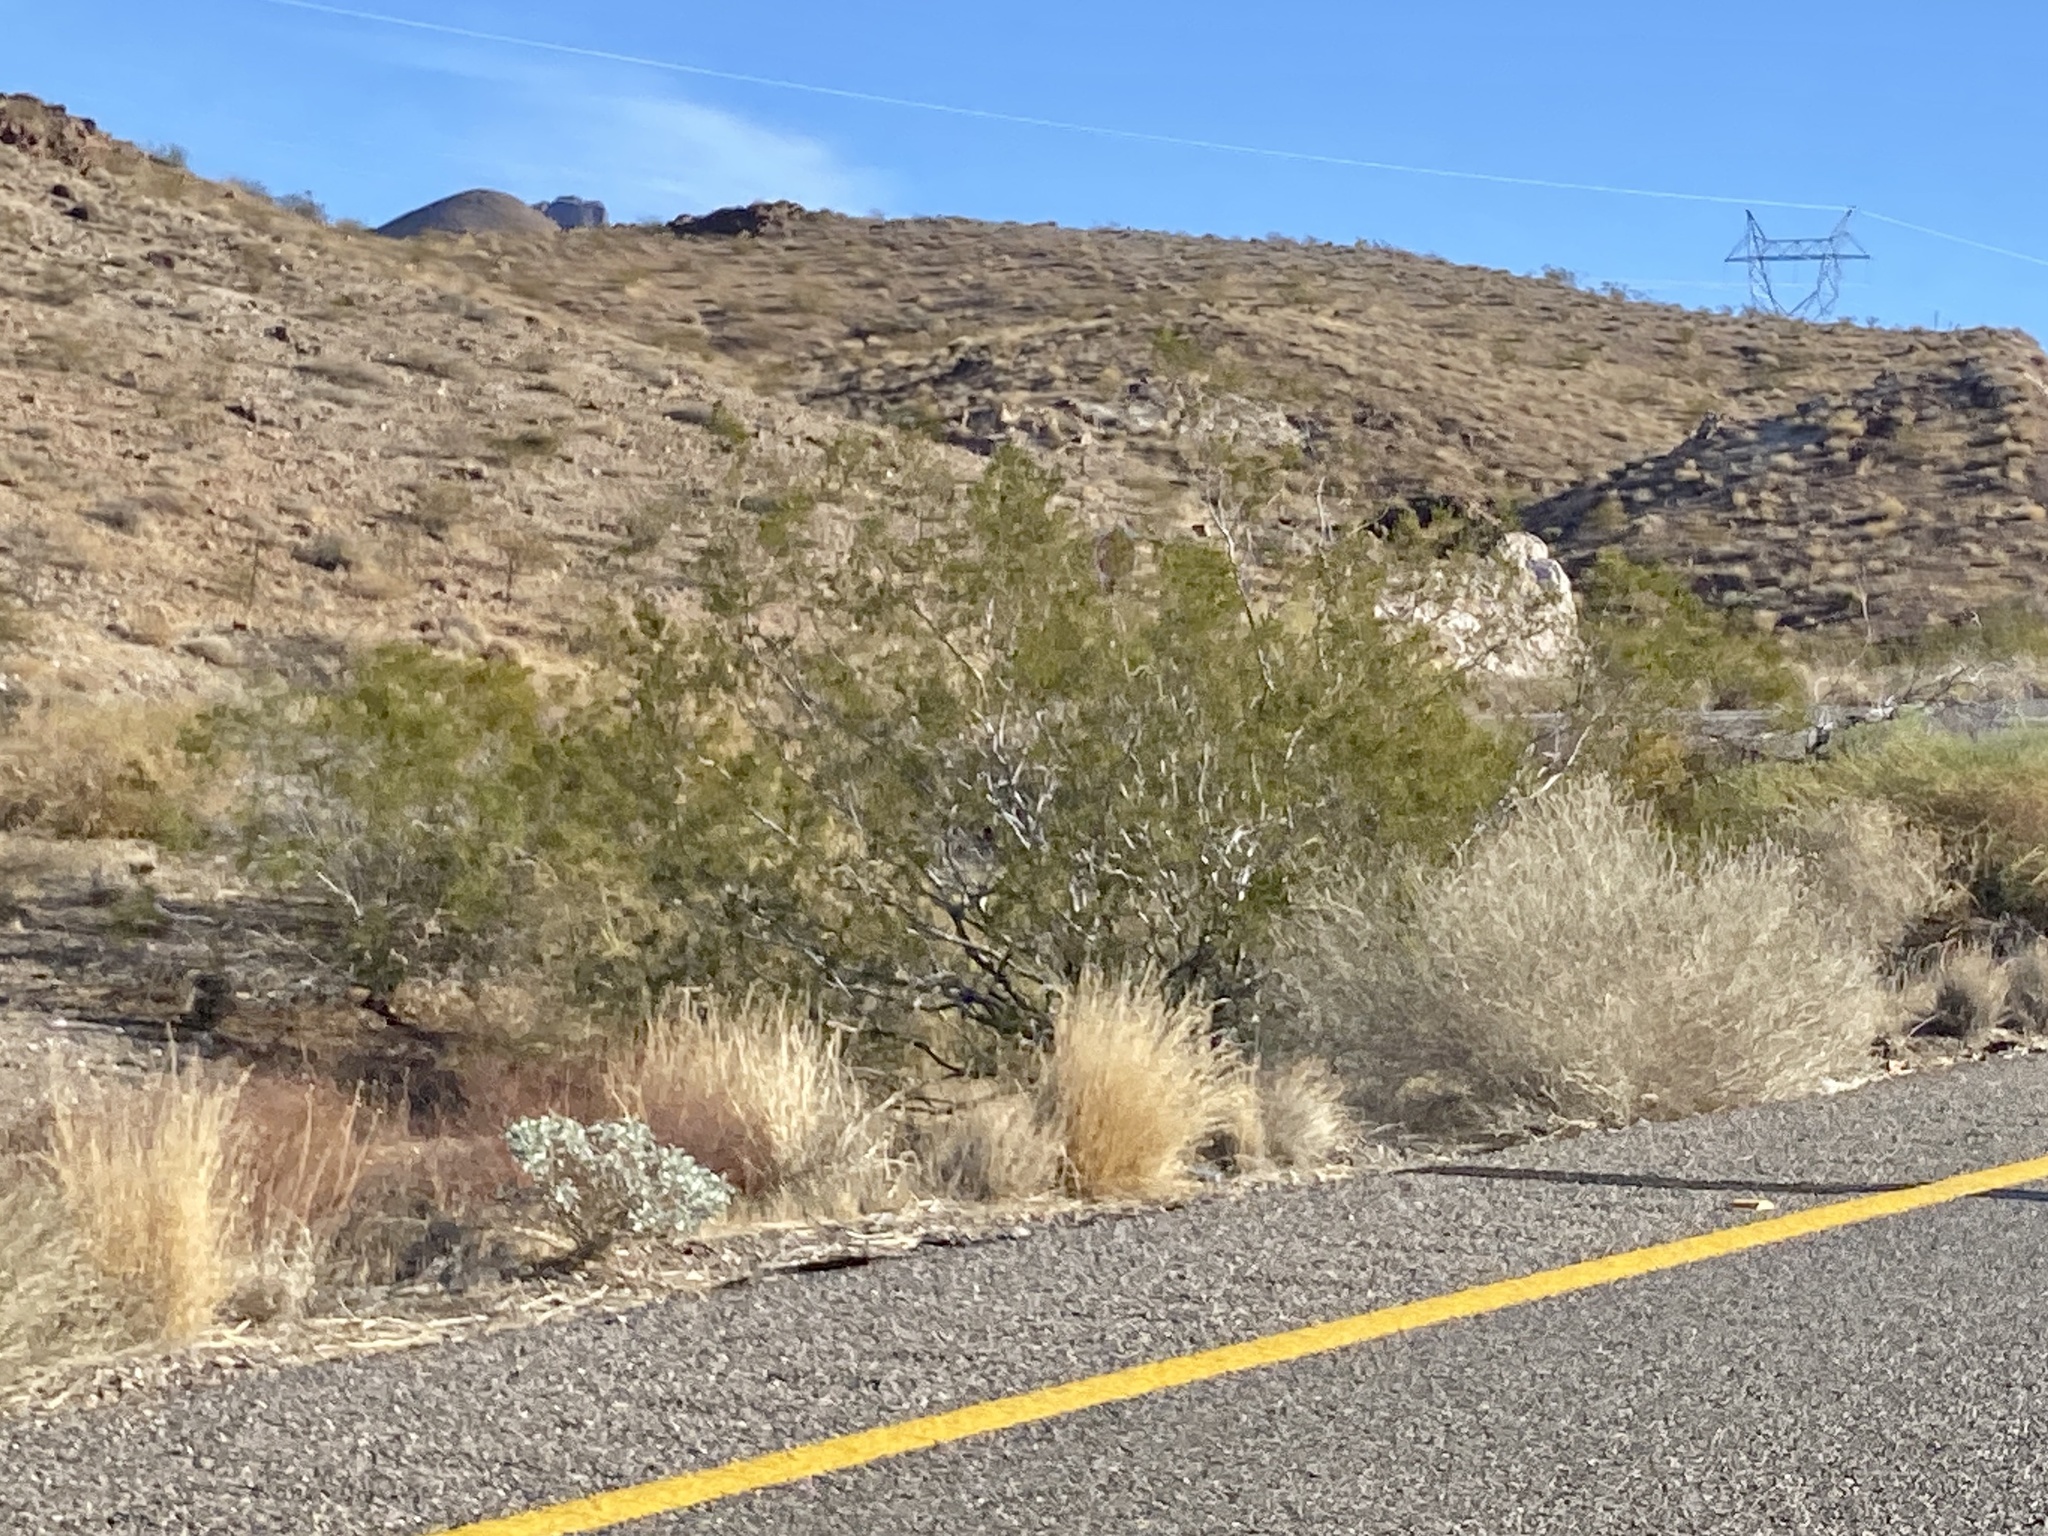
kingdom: Plantae
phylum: Tracheophyta
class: Magnoliopsida
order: Zygophyllales
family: Zygophyllaceae
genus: Larrea
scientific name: Larrea tridentata
